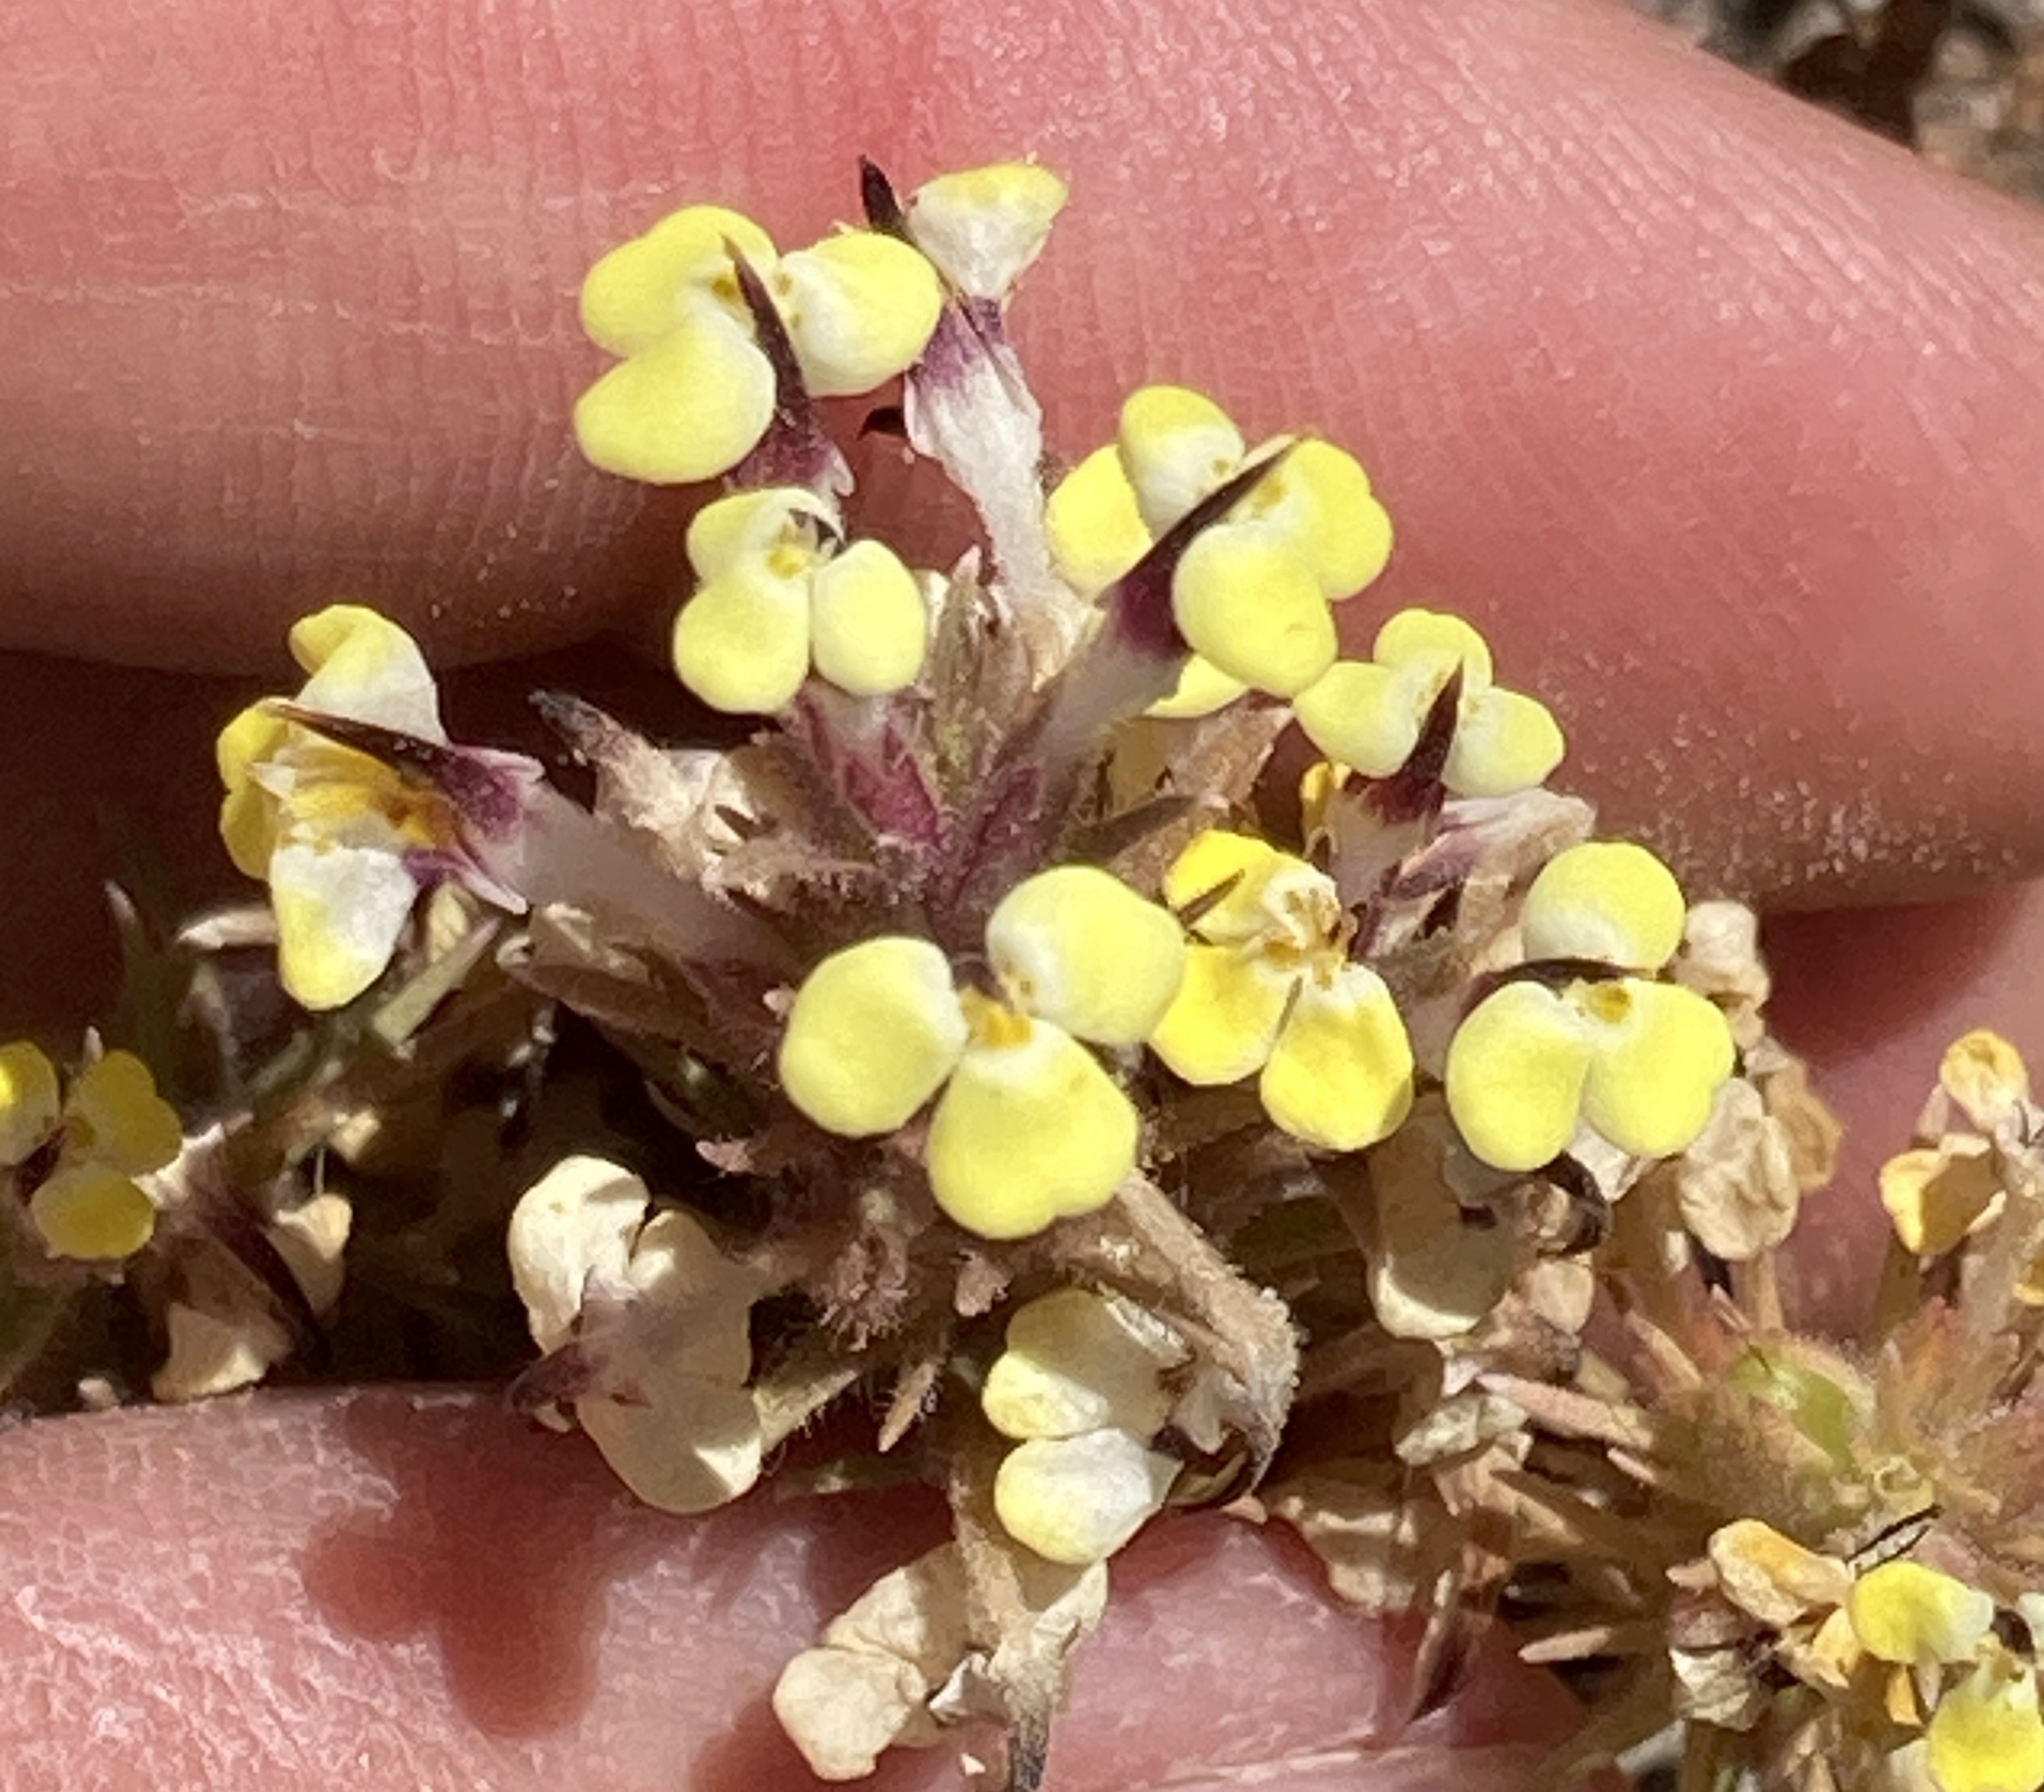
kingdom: Plantae
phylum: Tracheophyta
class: Magnoliopsida
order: Lamiales
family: Orobanchaceae
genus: Triphysaria
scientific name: Triphysaria eriantha
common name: Johnny-tuck
